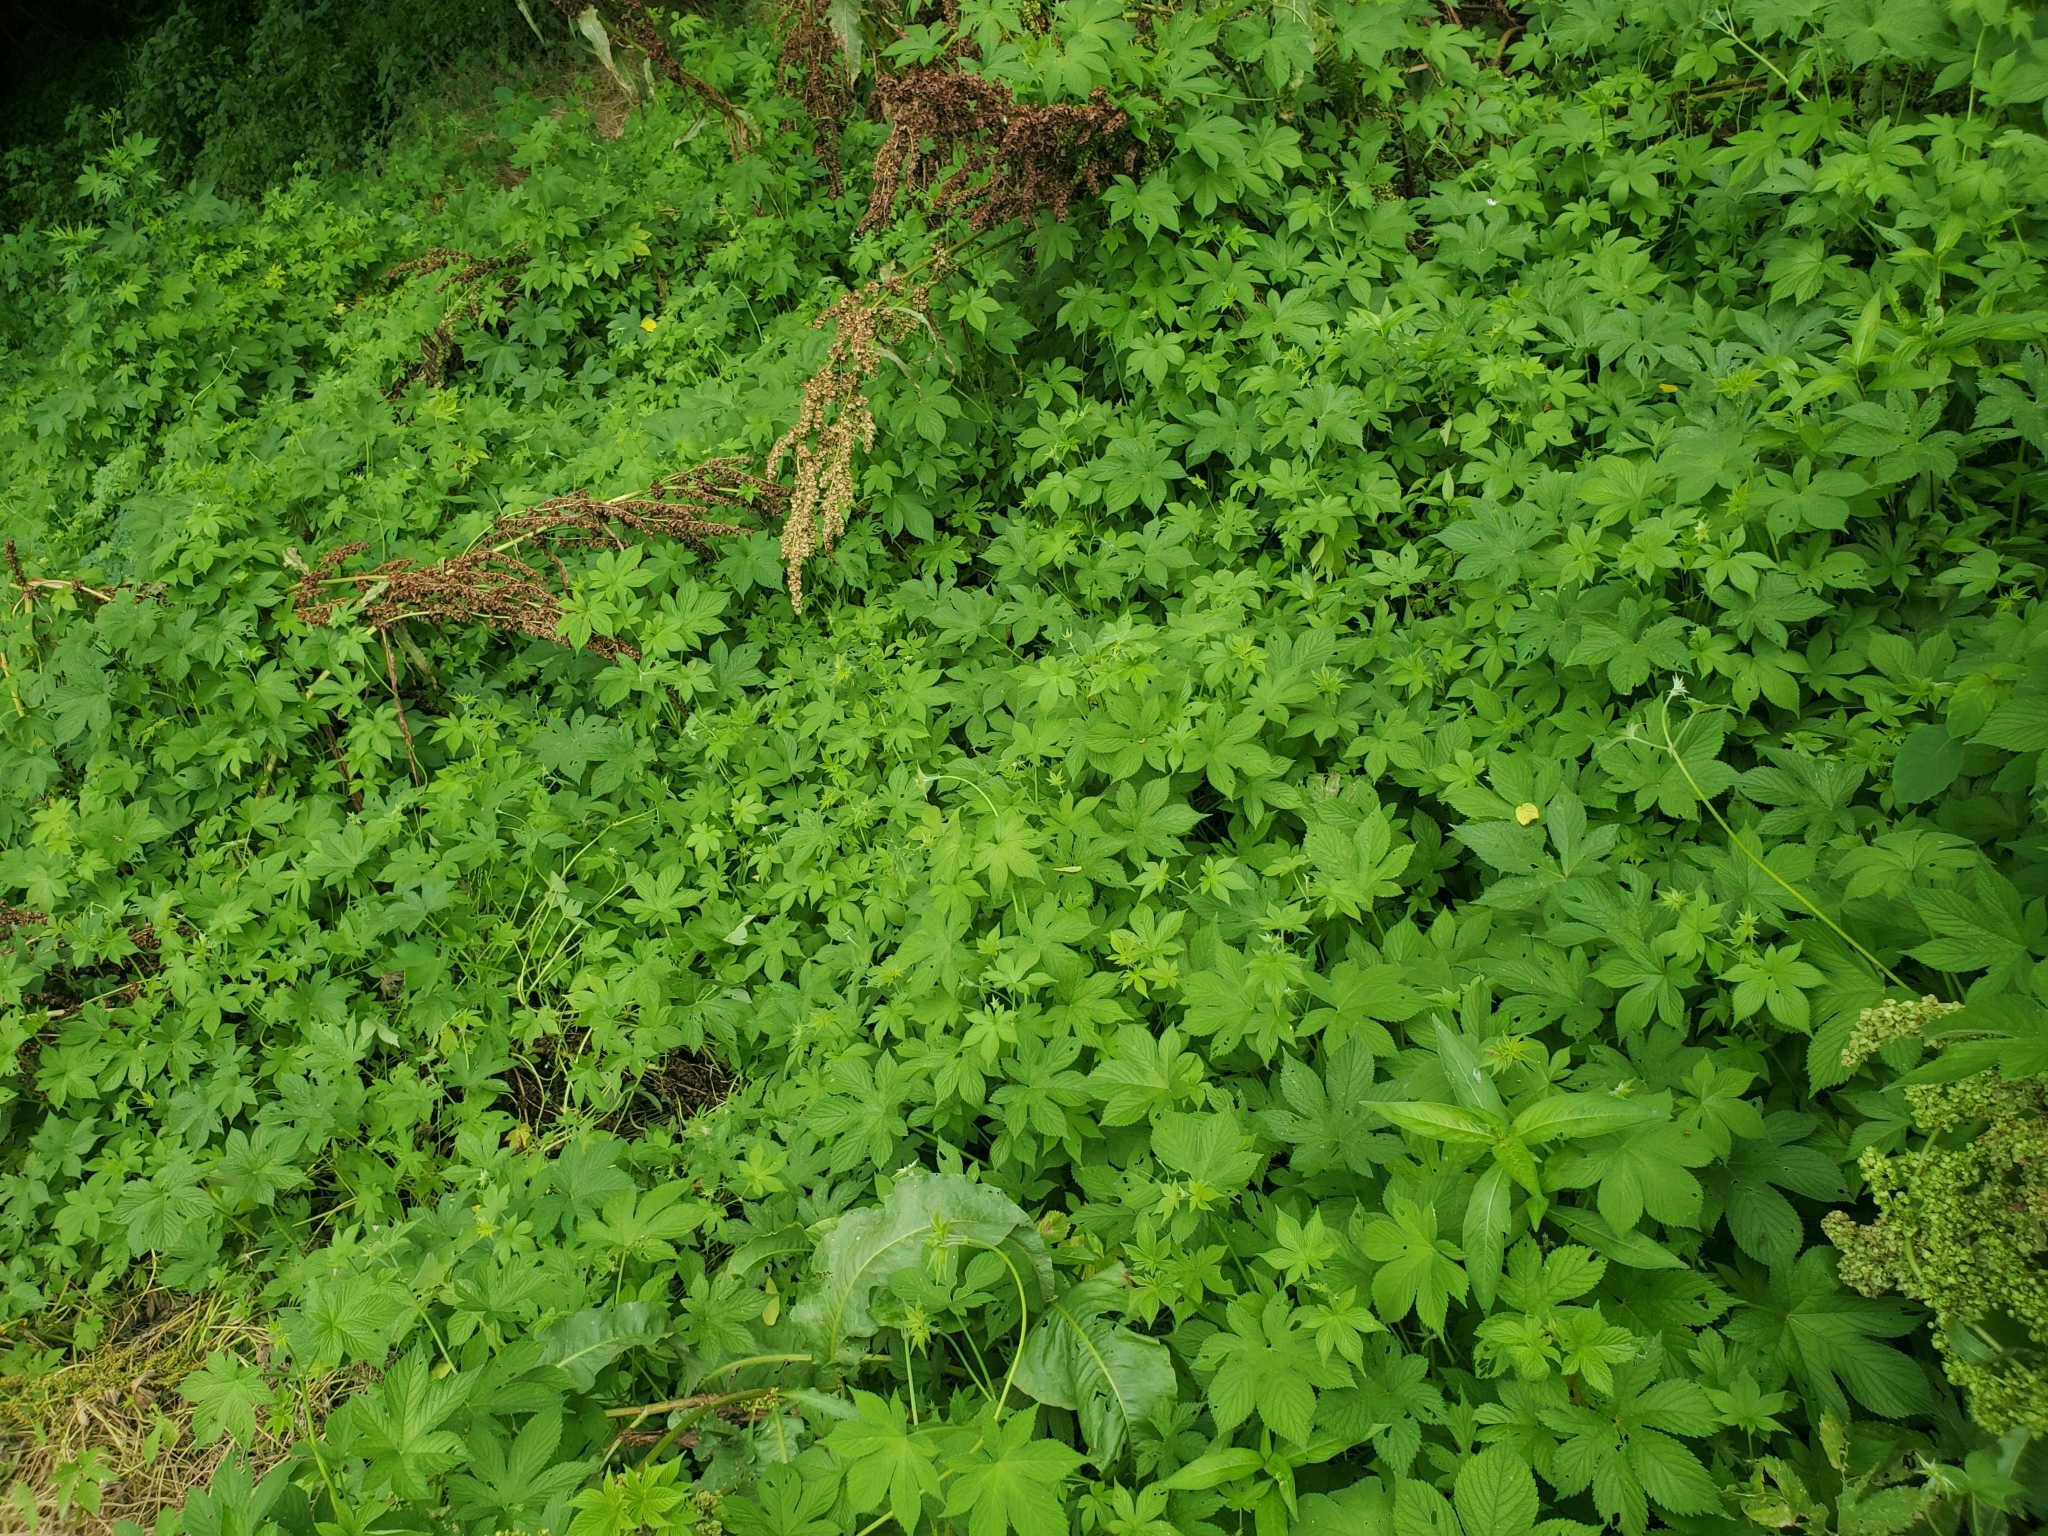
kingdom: Plantae
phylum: Tracheophyta
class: Magnoliopsida
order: Rosales
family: Cannabaceae
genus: Humulus
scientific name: Humulus scandens
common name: Japanese hop
